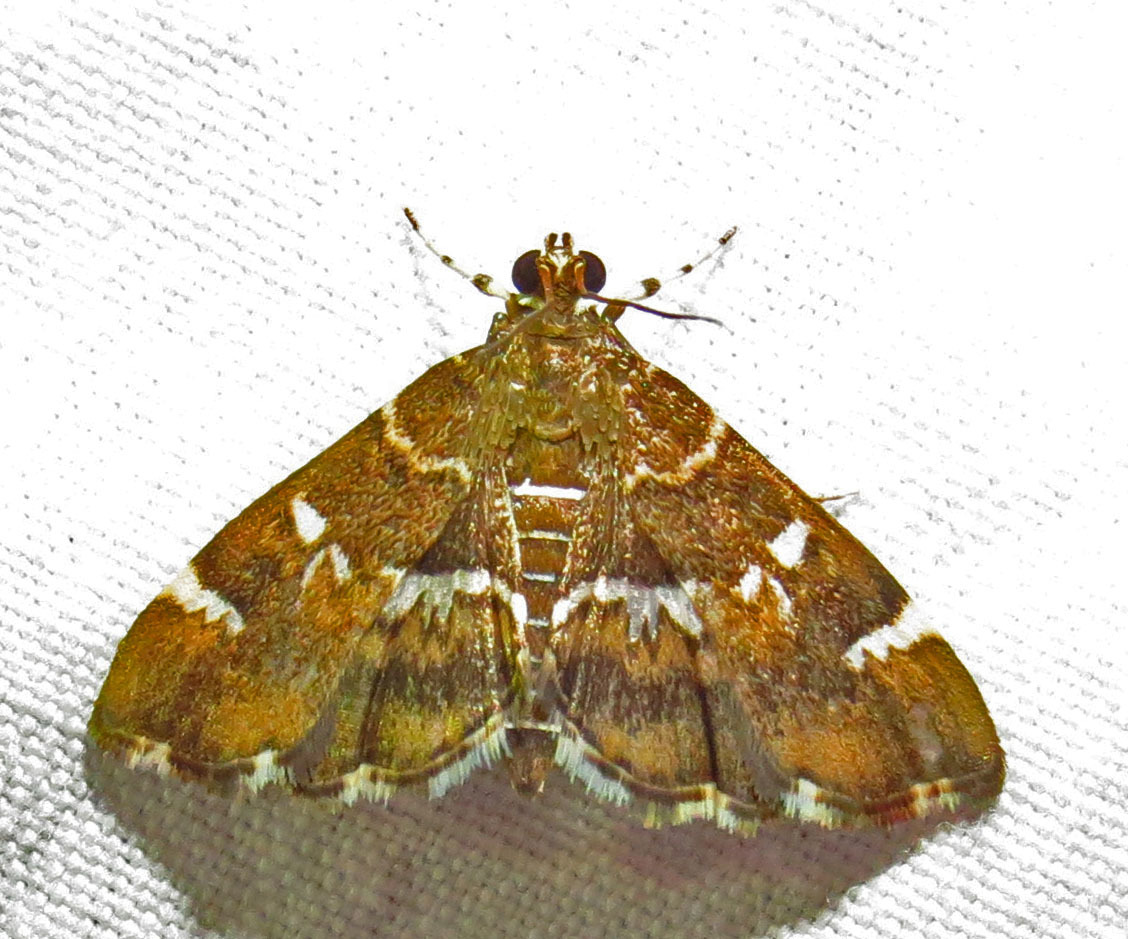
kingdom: Animalia
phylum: Arthropoda
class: Insecta
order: Lepidoptera
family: Crambidae
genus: Hymenia
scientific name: Hymenia perspectalis
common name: Spotted beet webworm
